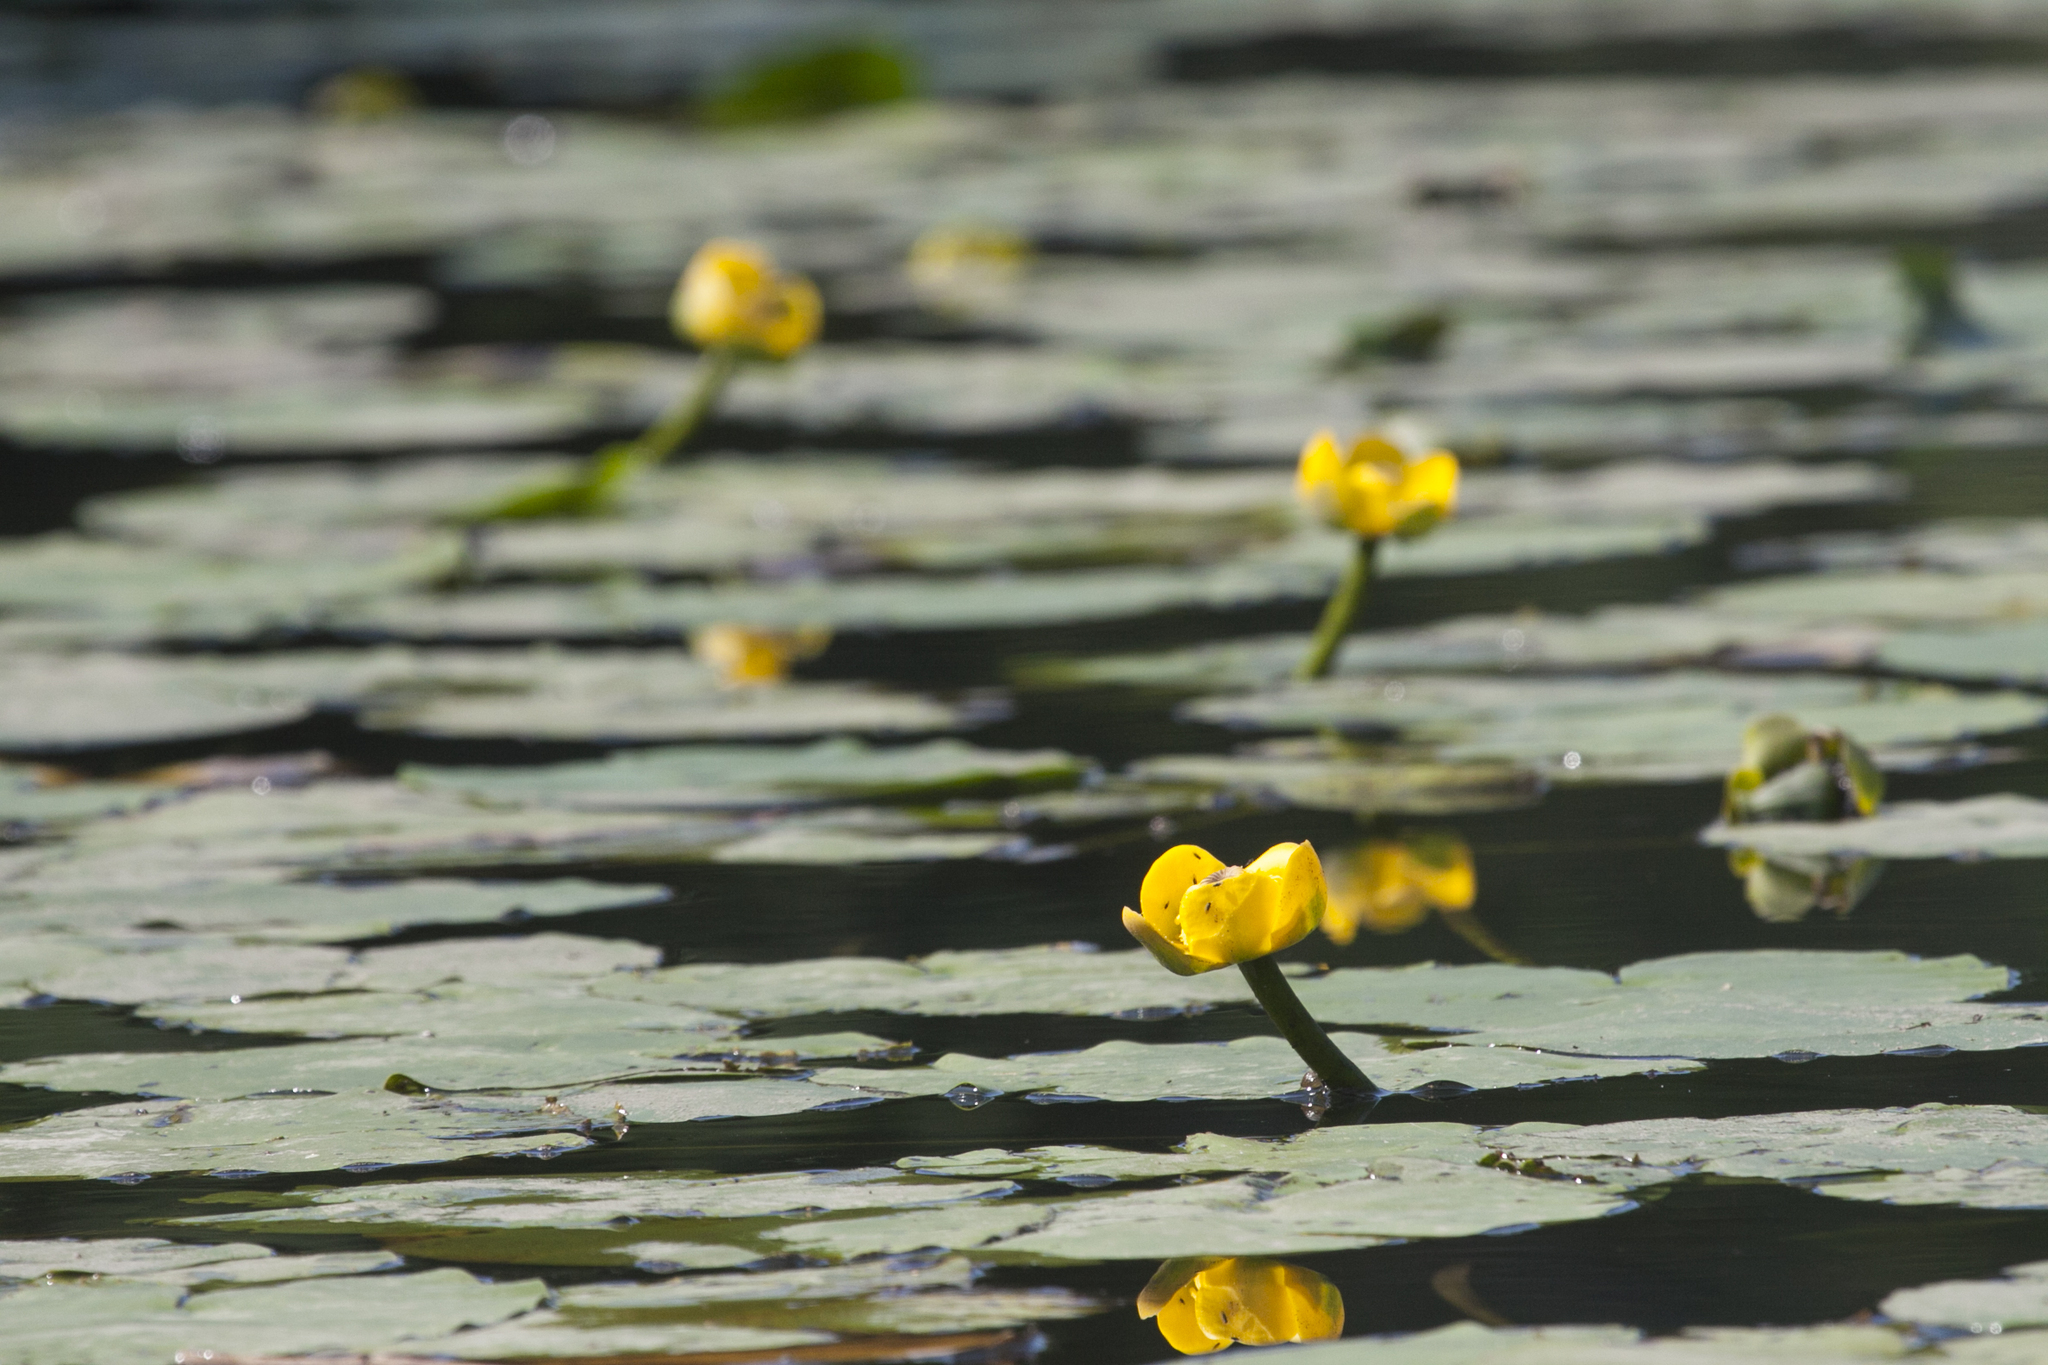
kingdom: Plantae
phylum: Tracheophyta
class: Magnoliopsida
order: Nymphaeales
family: Nymphaeaceae
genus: Nuphar
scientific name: Nuphar lutea
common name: Yellow water-lily
